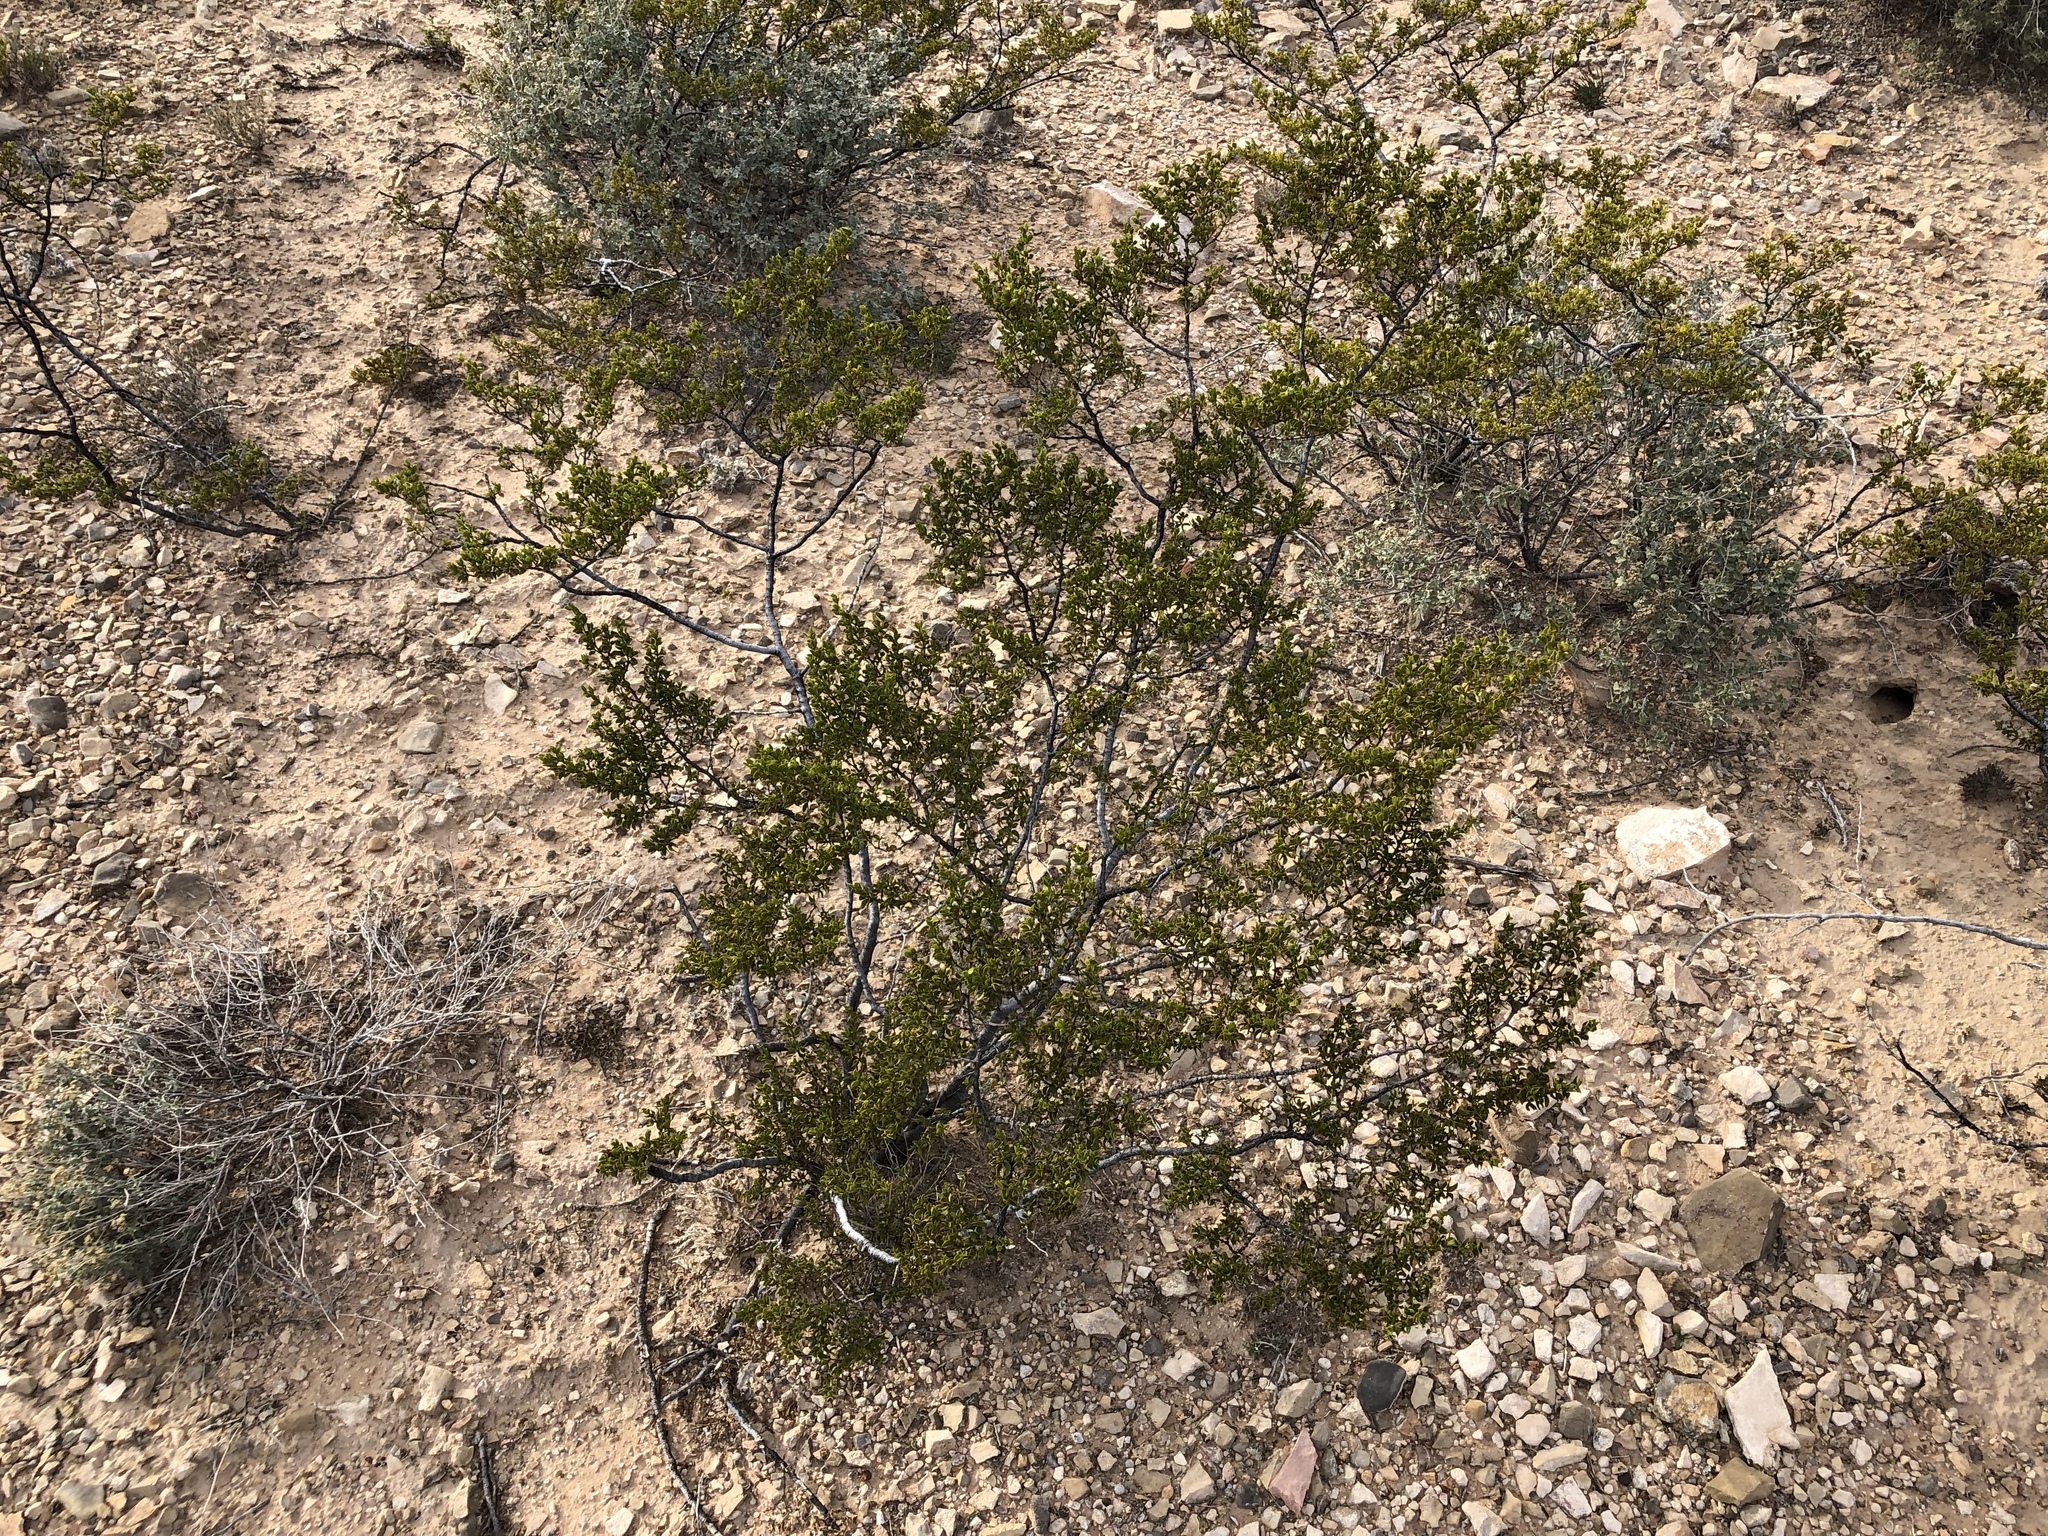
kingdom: Plantae
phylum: Tracheophyta
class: Magnoliopsida
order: Zygophyllales
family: Zygophyllaceae
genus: Larrea
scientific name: Larrea tridentata
